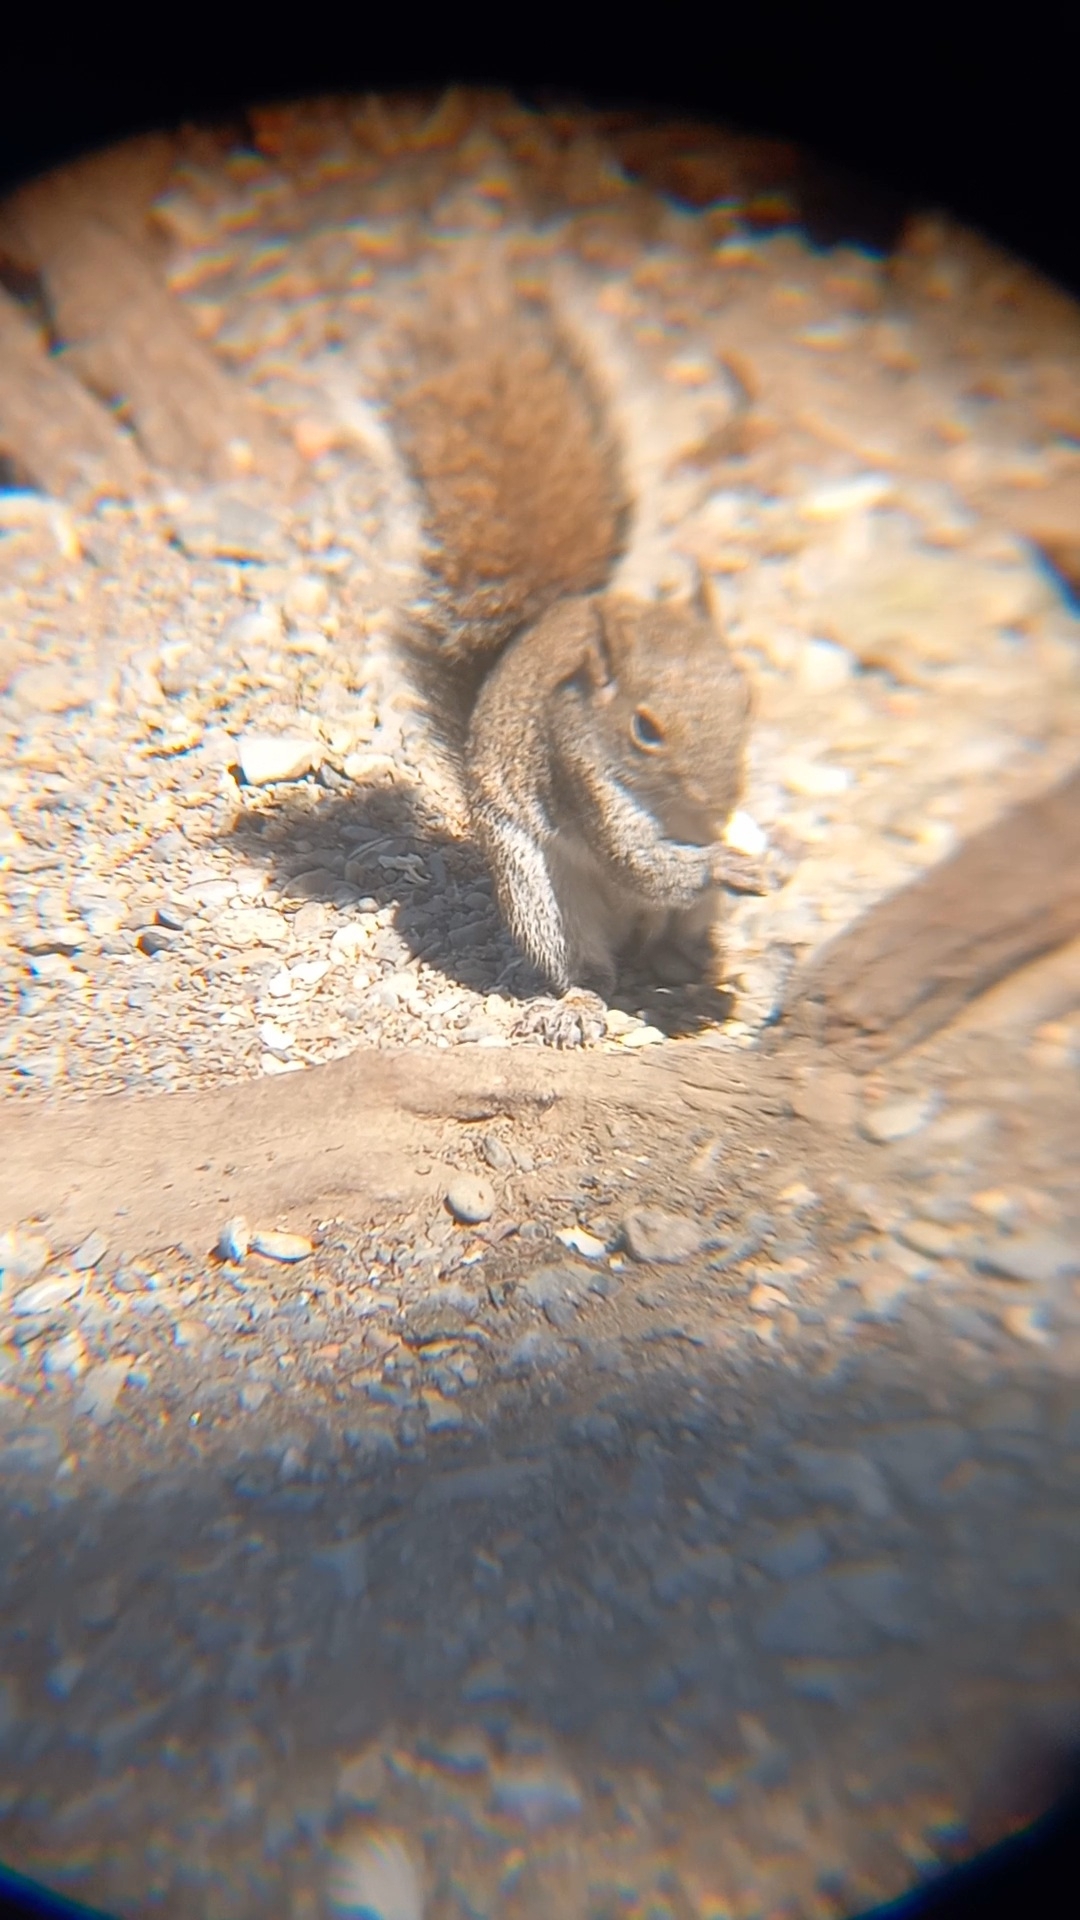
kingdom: Animalia
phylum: Chordata
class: Mammalia
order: Rodentia
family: Sciuridae
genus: Sciurus
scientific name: Sciurus alleni
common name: Allen's squirrel
